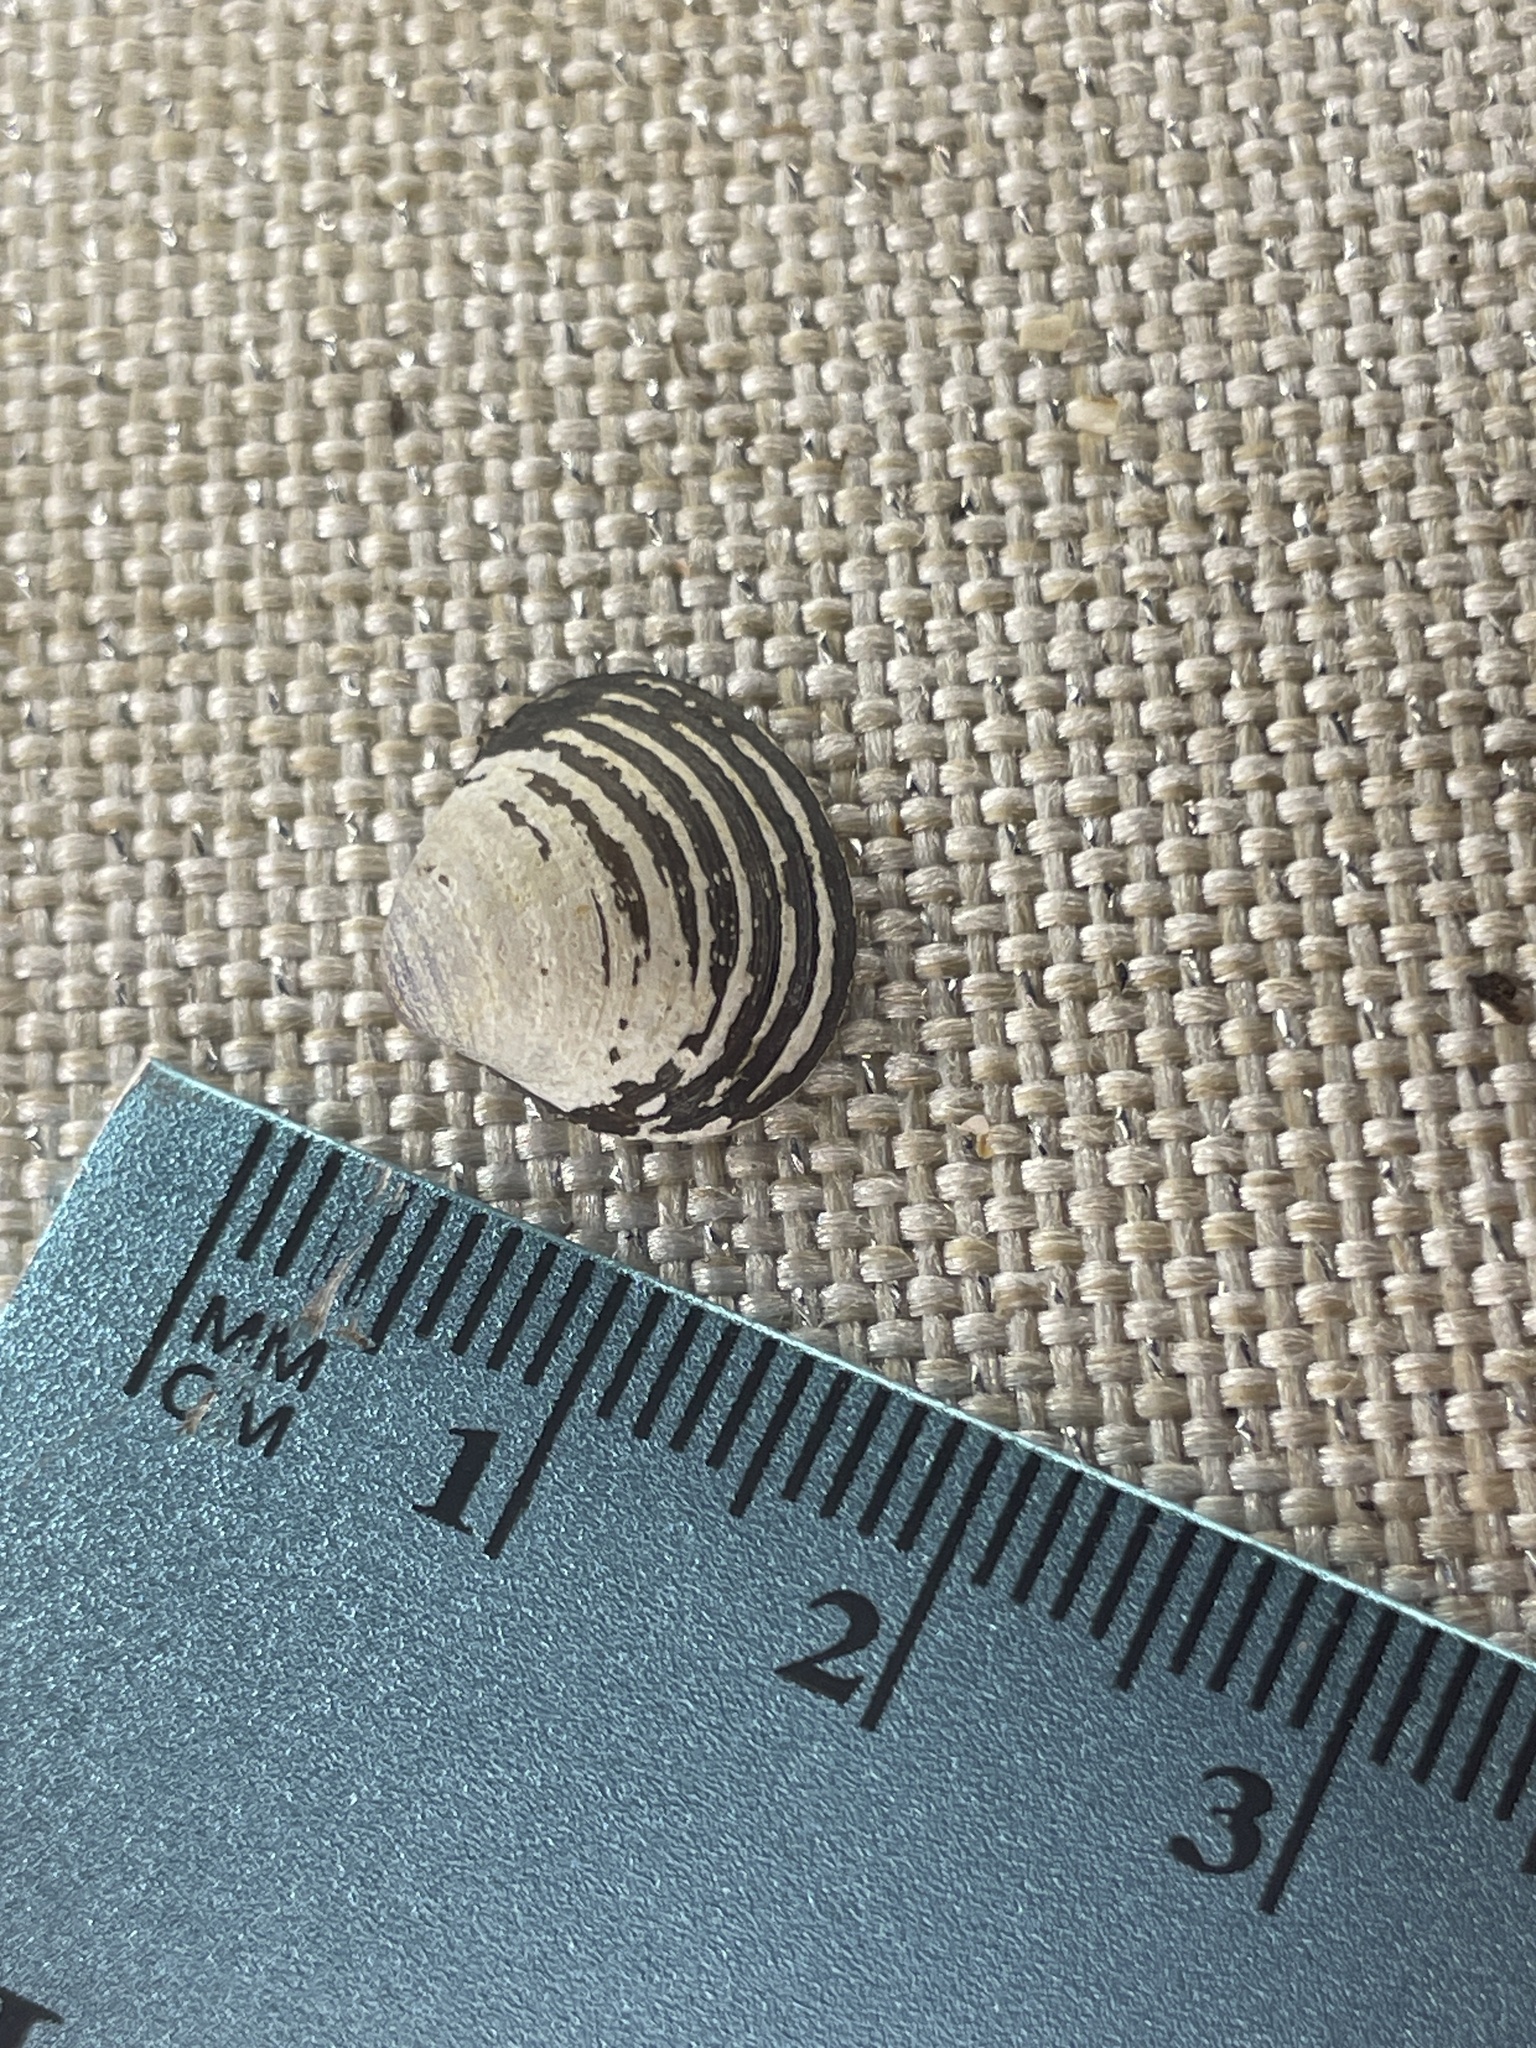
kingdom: Animalia
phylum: Mollusca
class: Bivalvia
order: Venerida
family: Cyrenidae
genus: Corbicula
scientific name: Corbicula fluminea
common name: Asian clam
